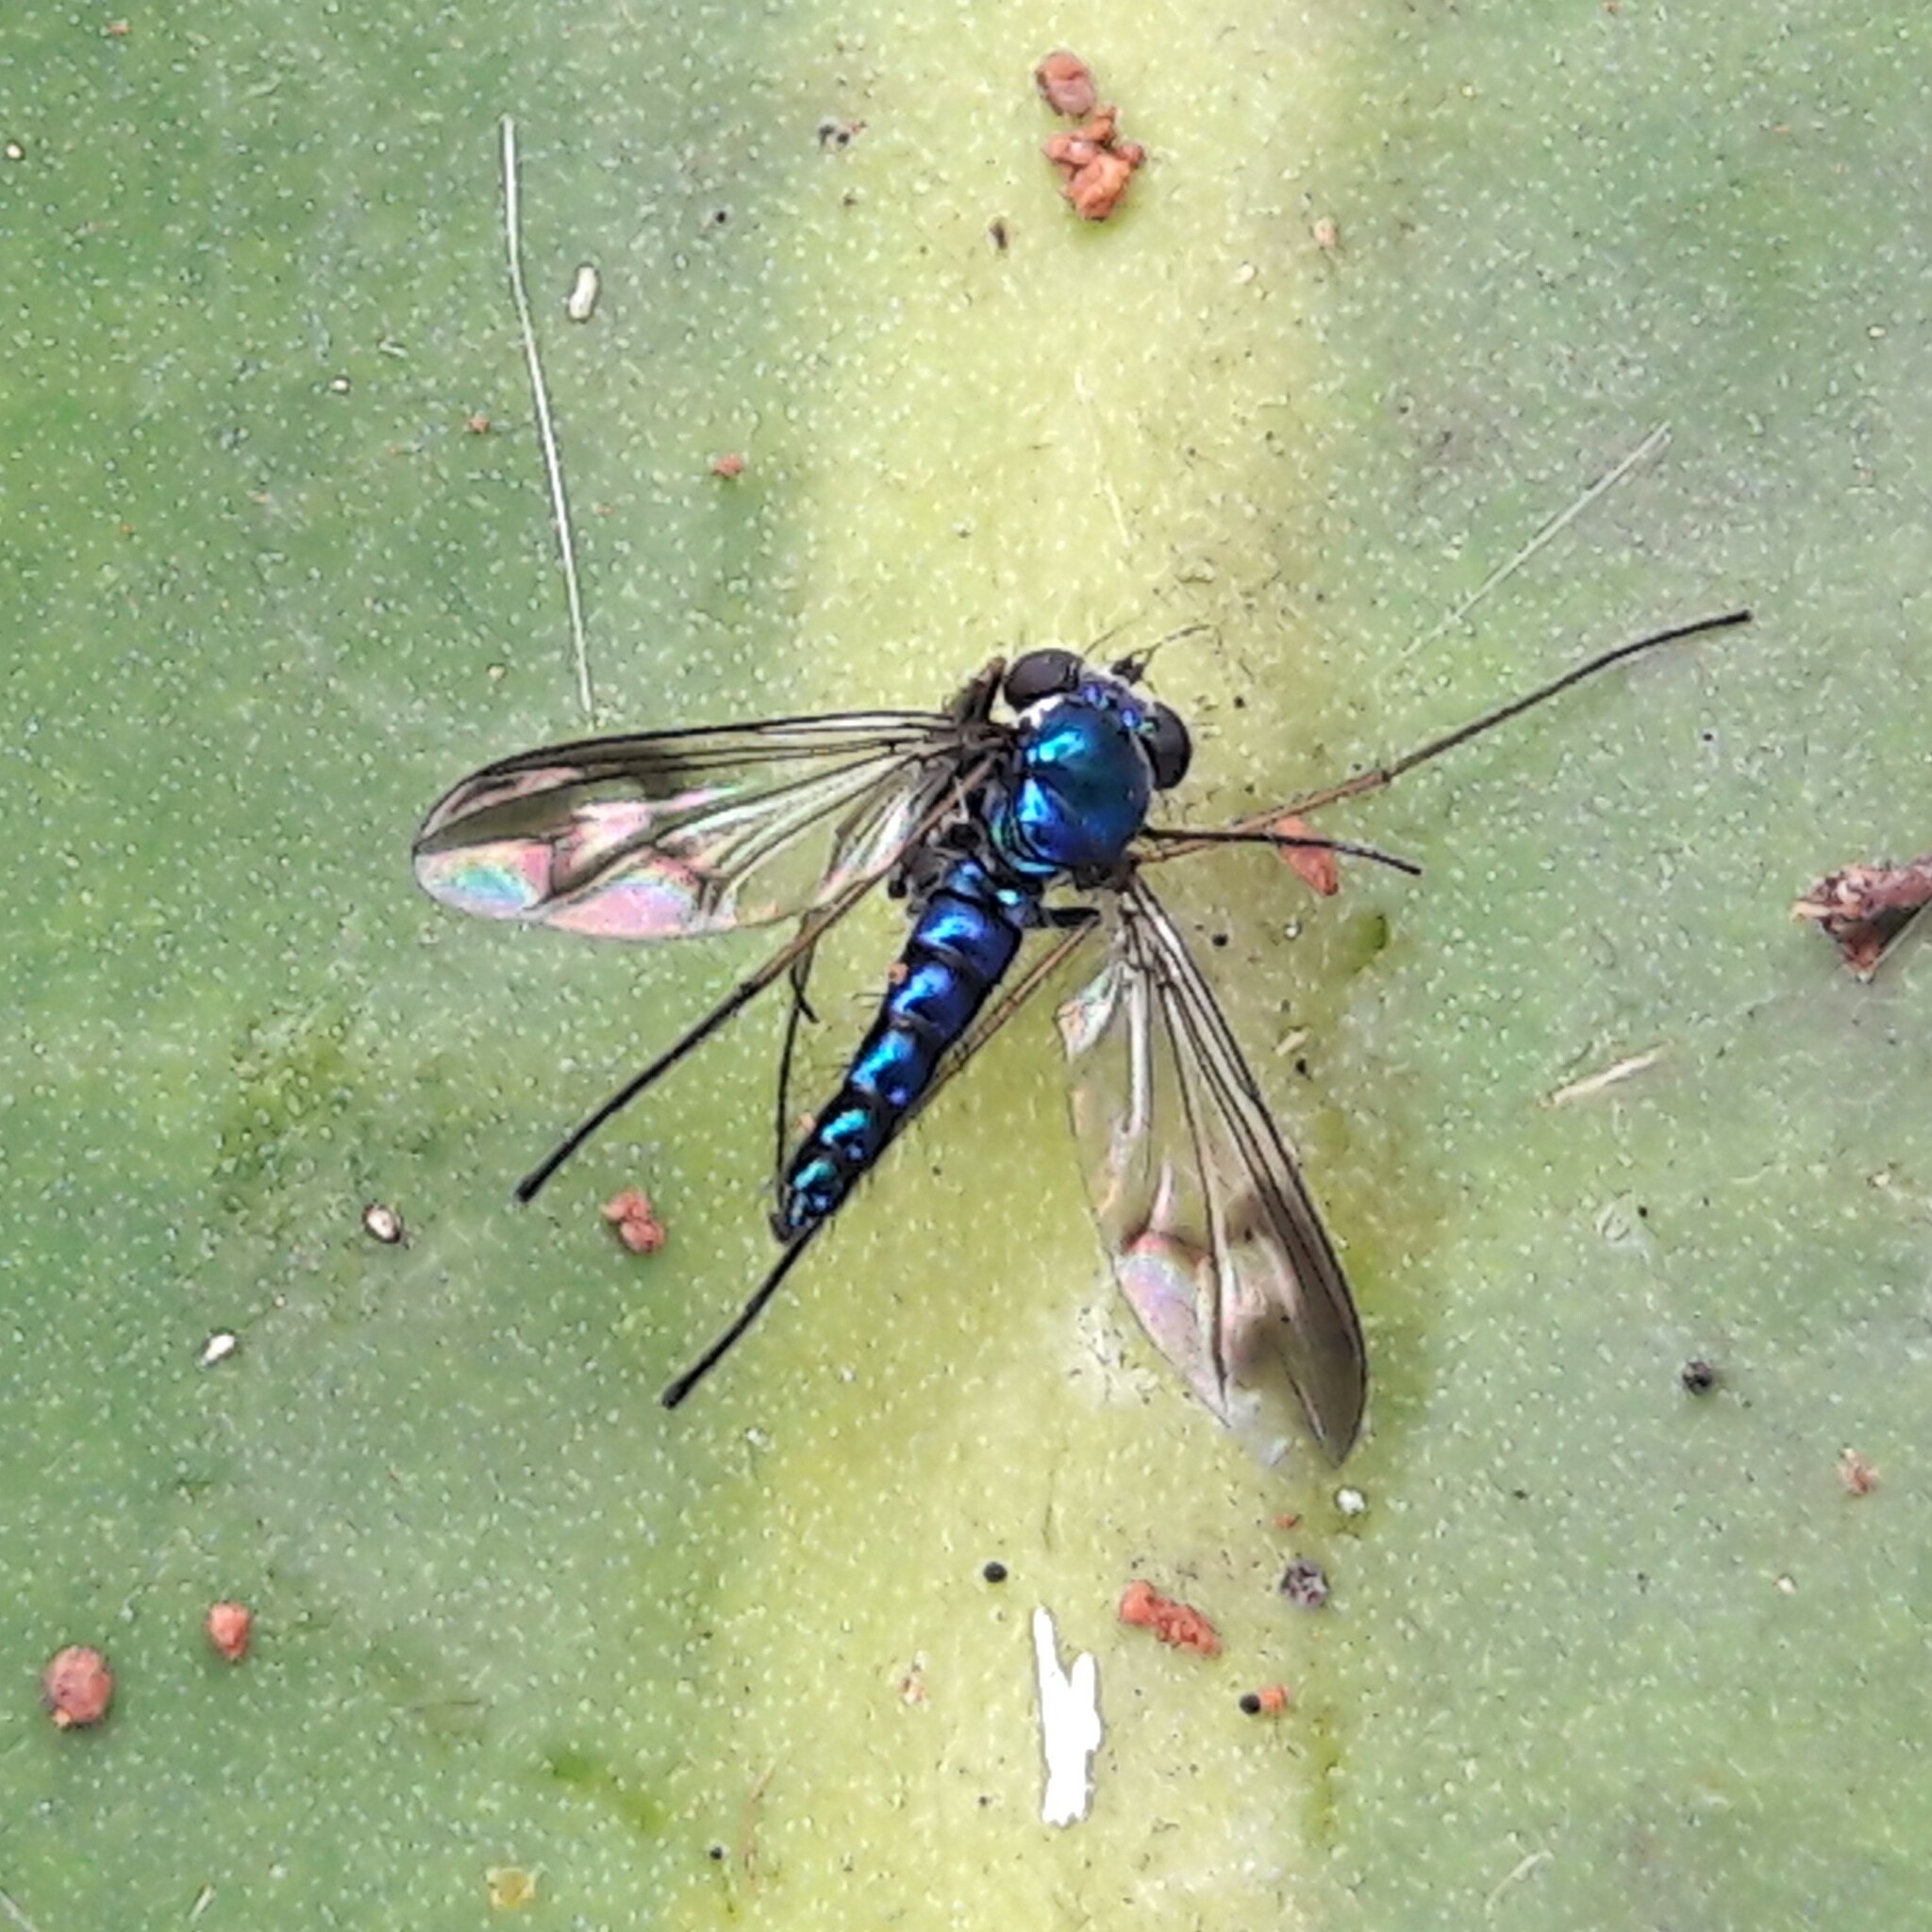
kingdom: Animalia
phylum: Arthropoda
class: Insecta
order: Diptera
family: Dolichopodidae
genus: Condylostylus
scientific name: Condylostylus depressus
